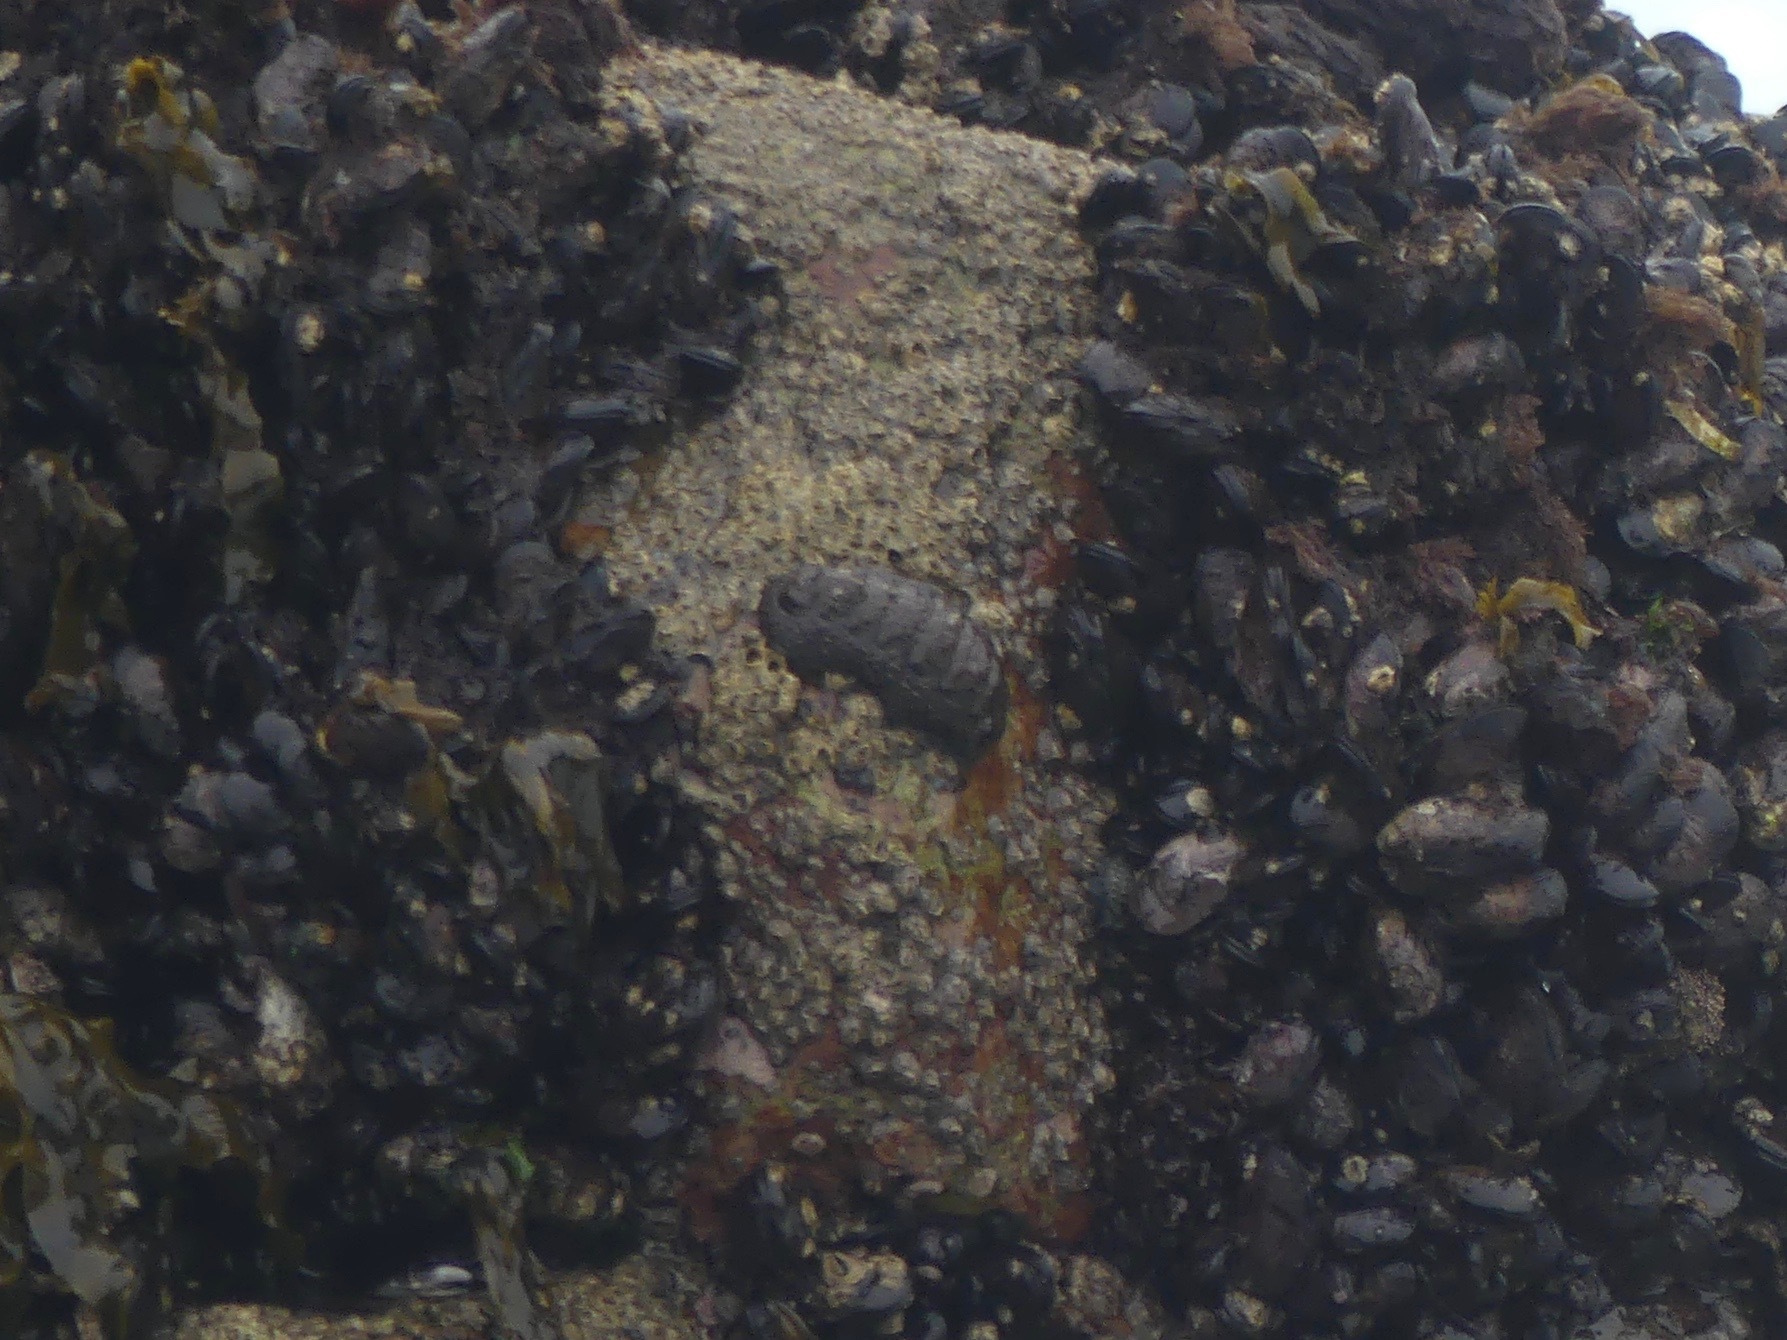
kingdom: Animalia
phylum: Mollusca
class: Polyplacophora
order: Chitonida
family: Chitonidae
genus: Enoplochiton
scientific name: Enoplochiton niger
